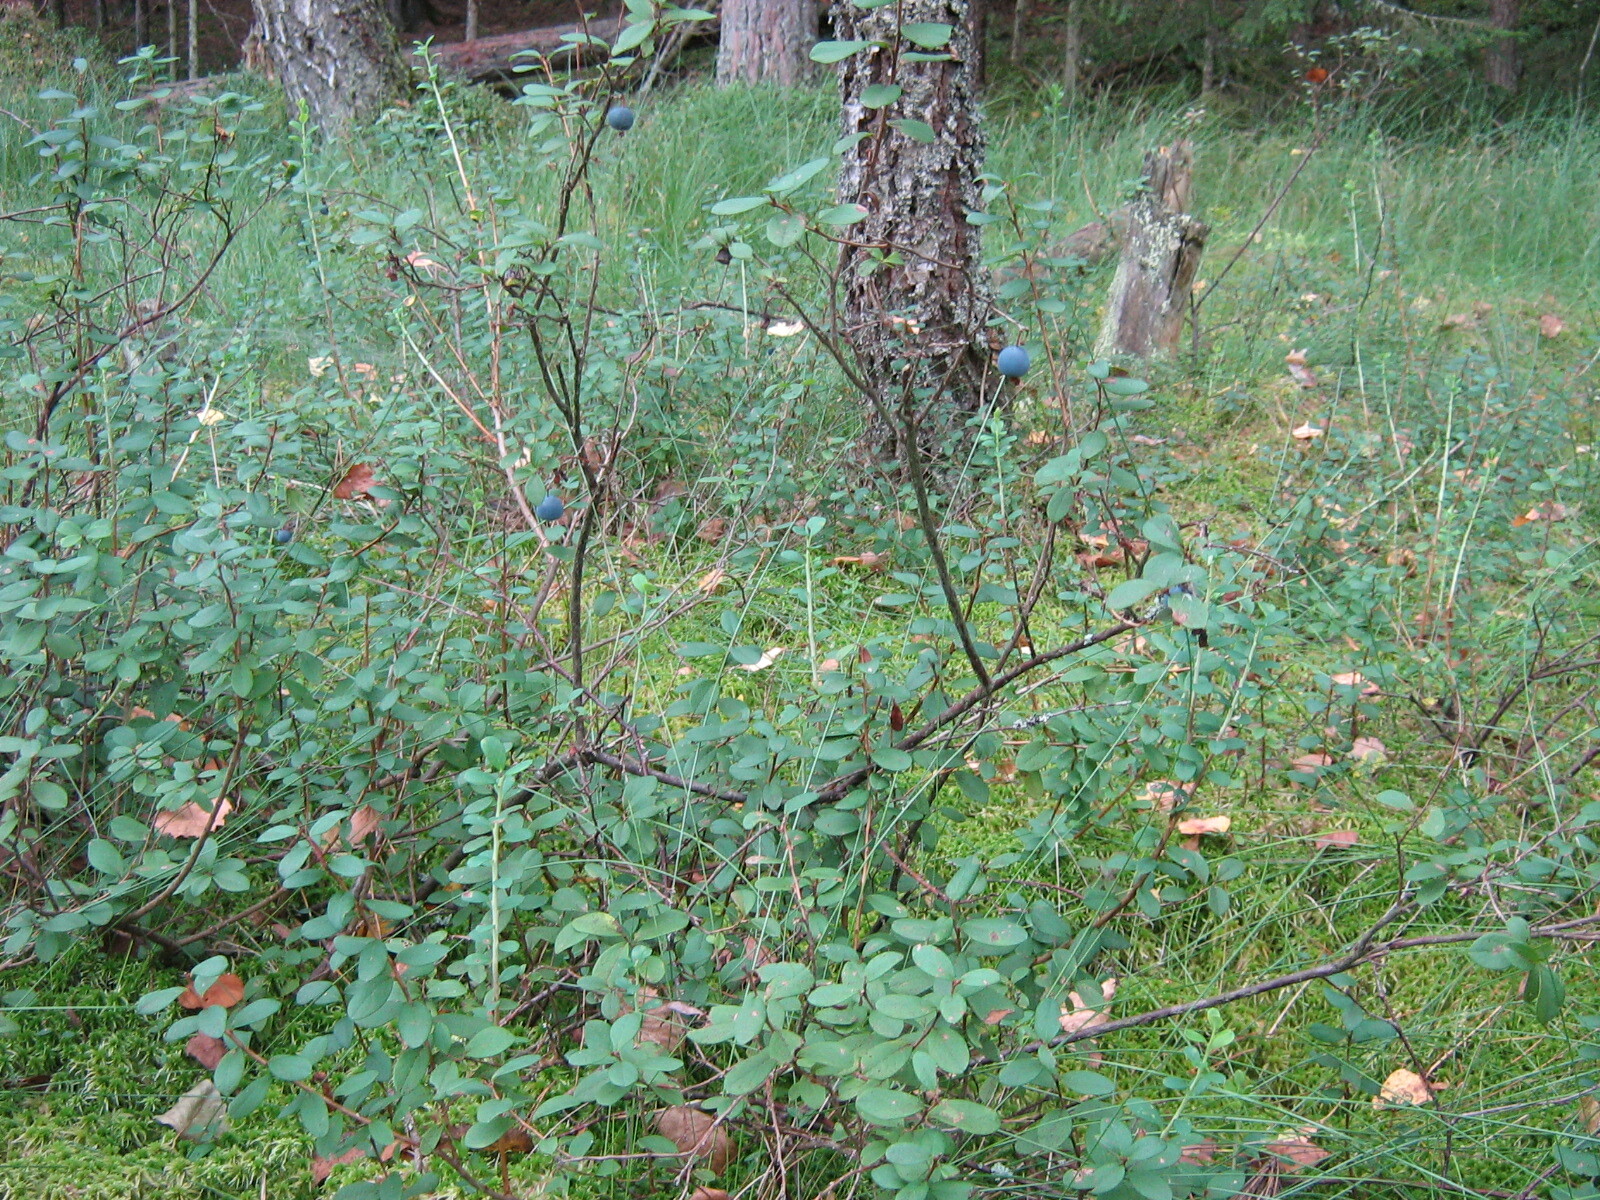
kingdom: Plantae
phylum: Tracheophyta
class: Magnoliopsida
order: Ericales
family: Ericaceae
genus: Vaccinium
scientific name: Vaccinium uliginosum
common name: Bog bilberry
